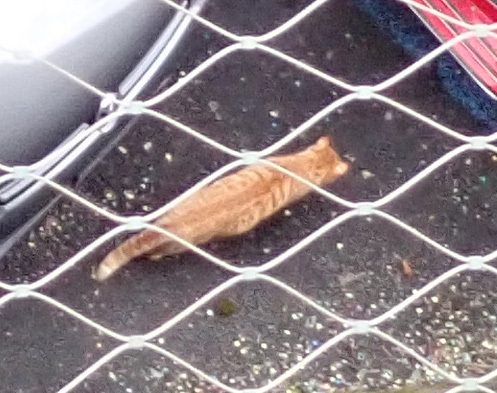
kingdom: Animalia
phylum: Chordata
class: Mammalia
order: Carnivora
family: Felidae
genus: Felis
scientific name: Felis catus
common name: Domestic cat
